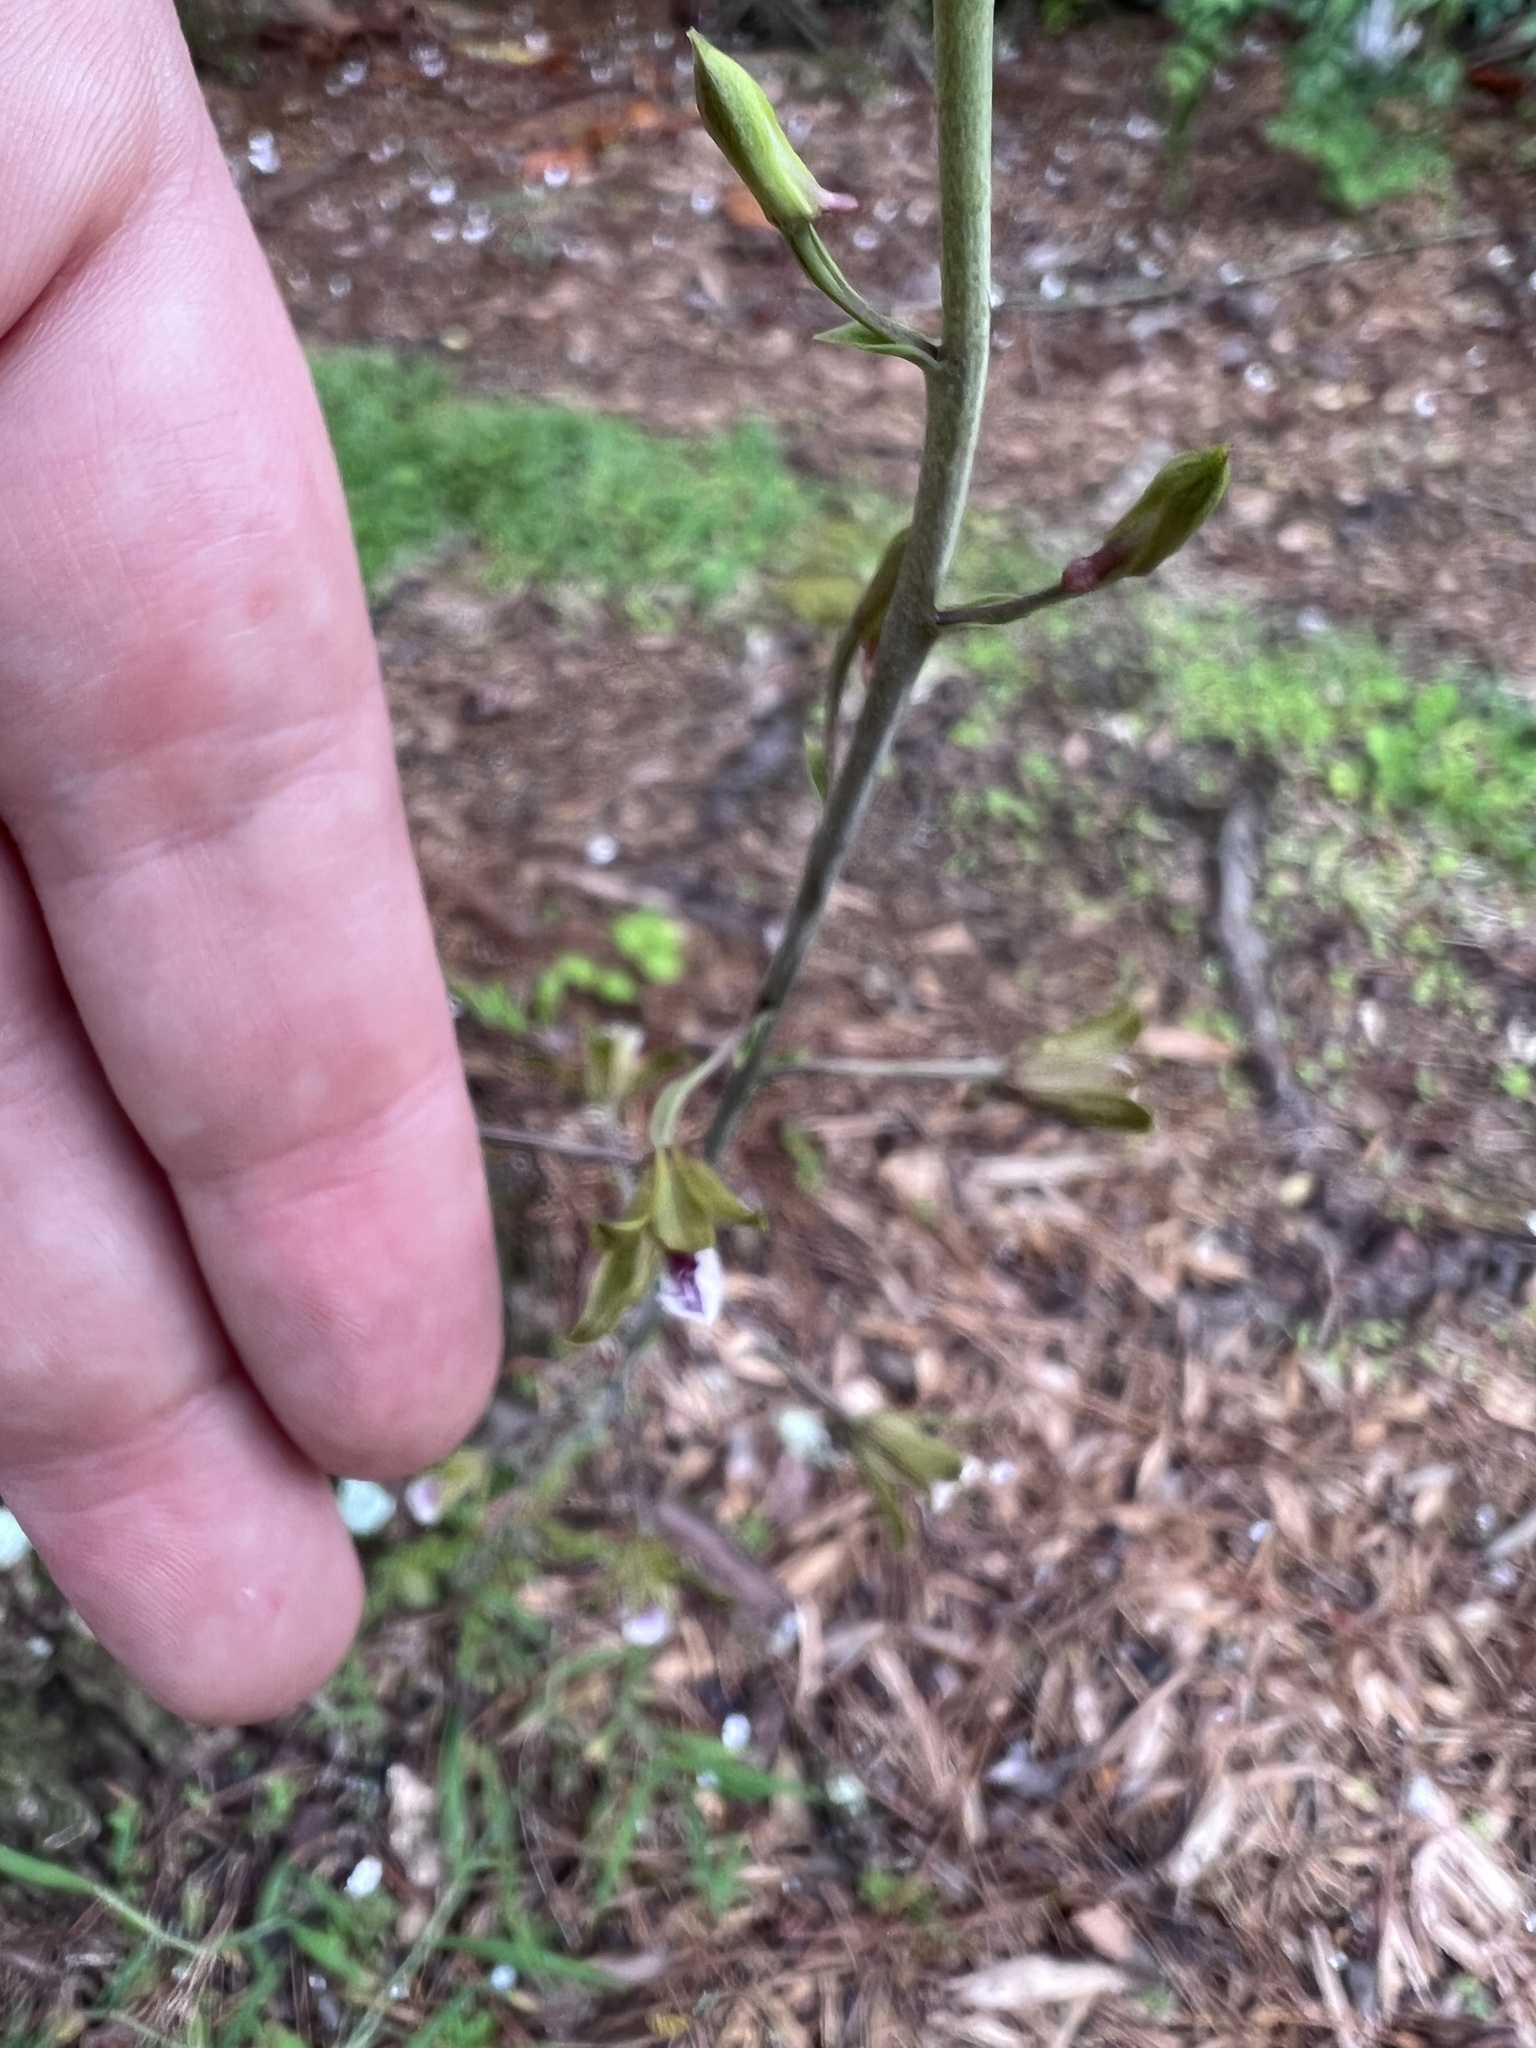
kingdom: Plantae
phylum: Tracheophyta
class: Liliopsida
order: Asparagales
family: Orchidaceae
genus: Eulophia
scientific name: Eulophia graminea
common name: Orchid
